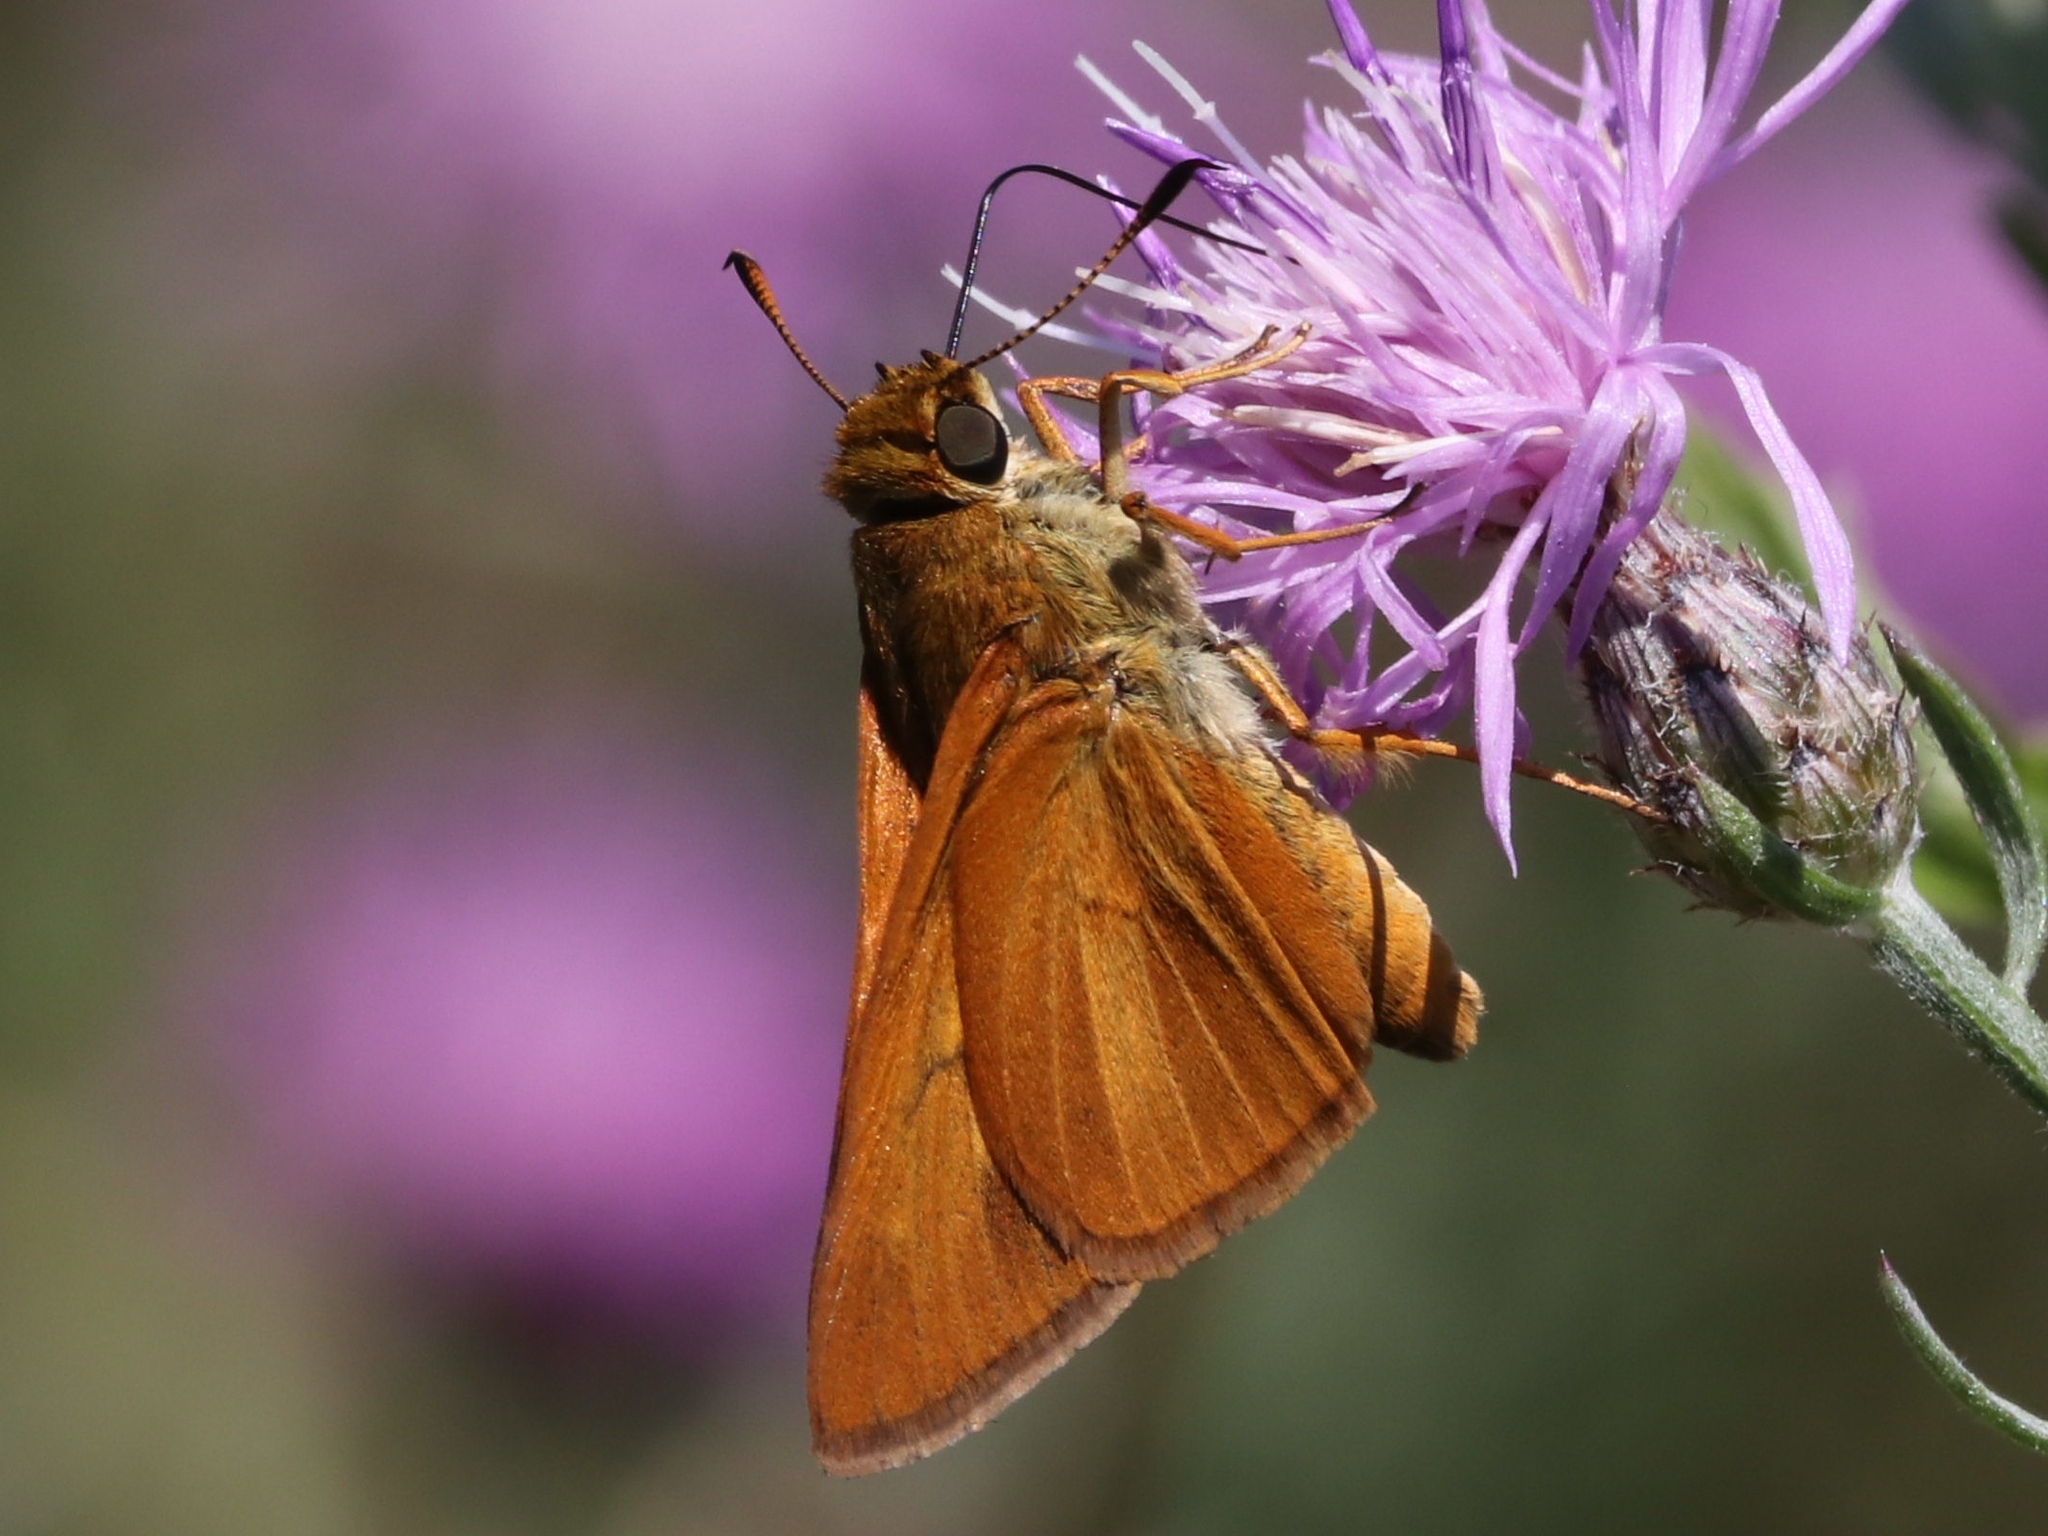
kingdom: Animalia
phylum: Arthropoda
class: Insecta
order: Lepidoptera
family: Hesperiidae
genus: Euphyes
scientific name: Euphyes dion
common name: Dion skipper
